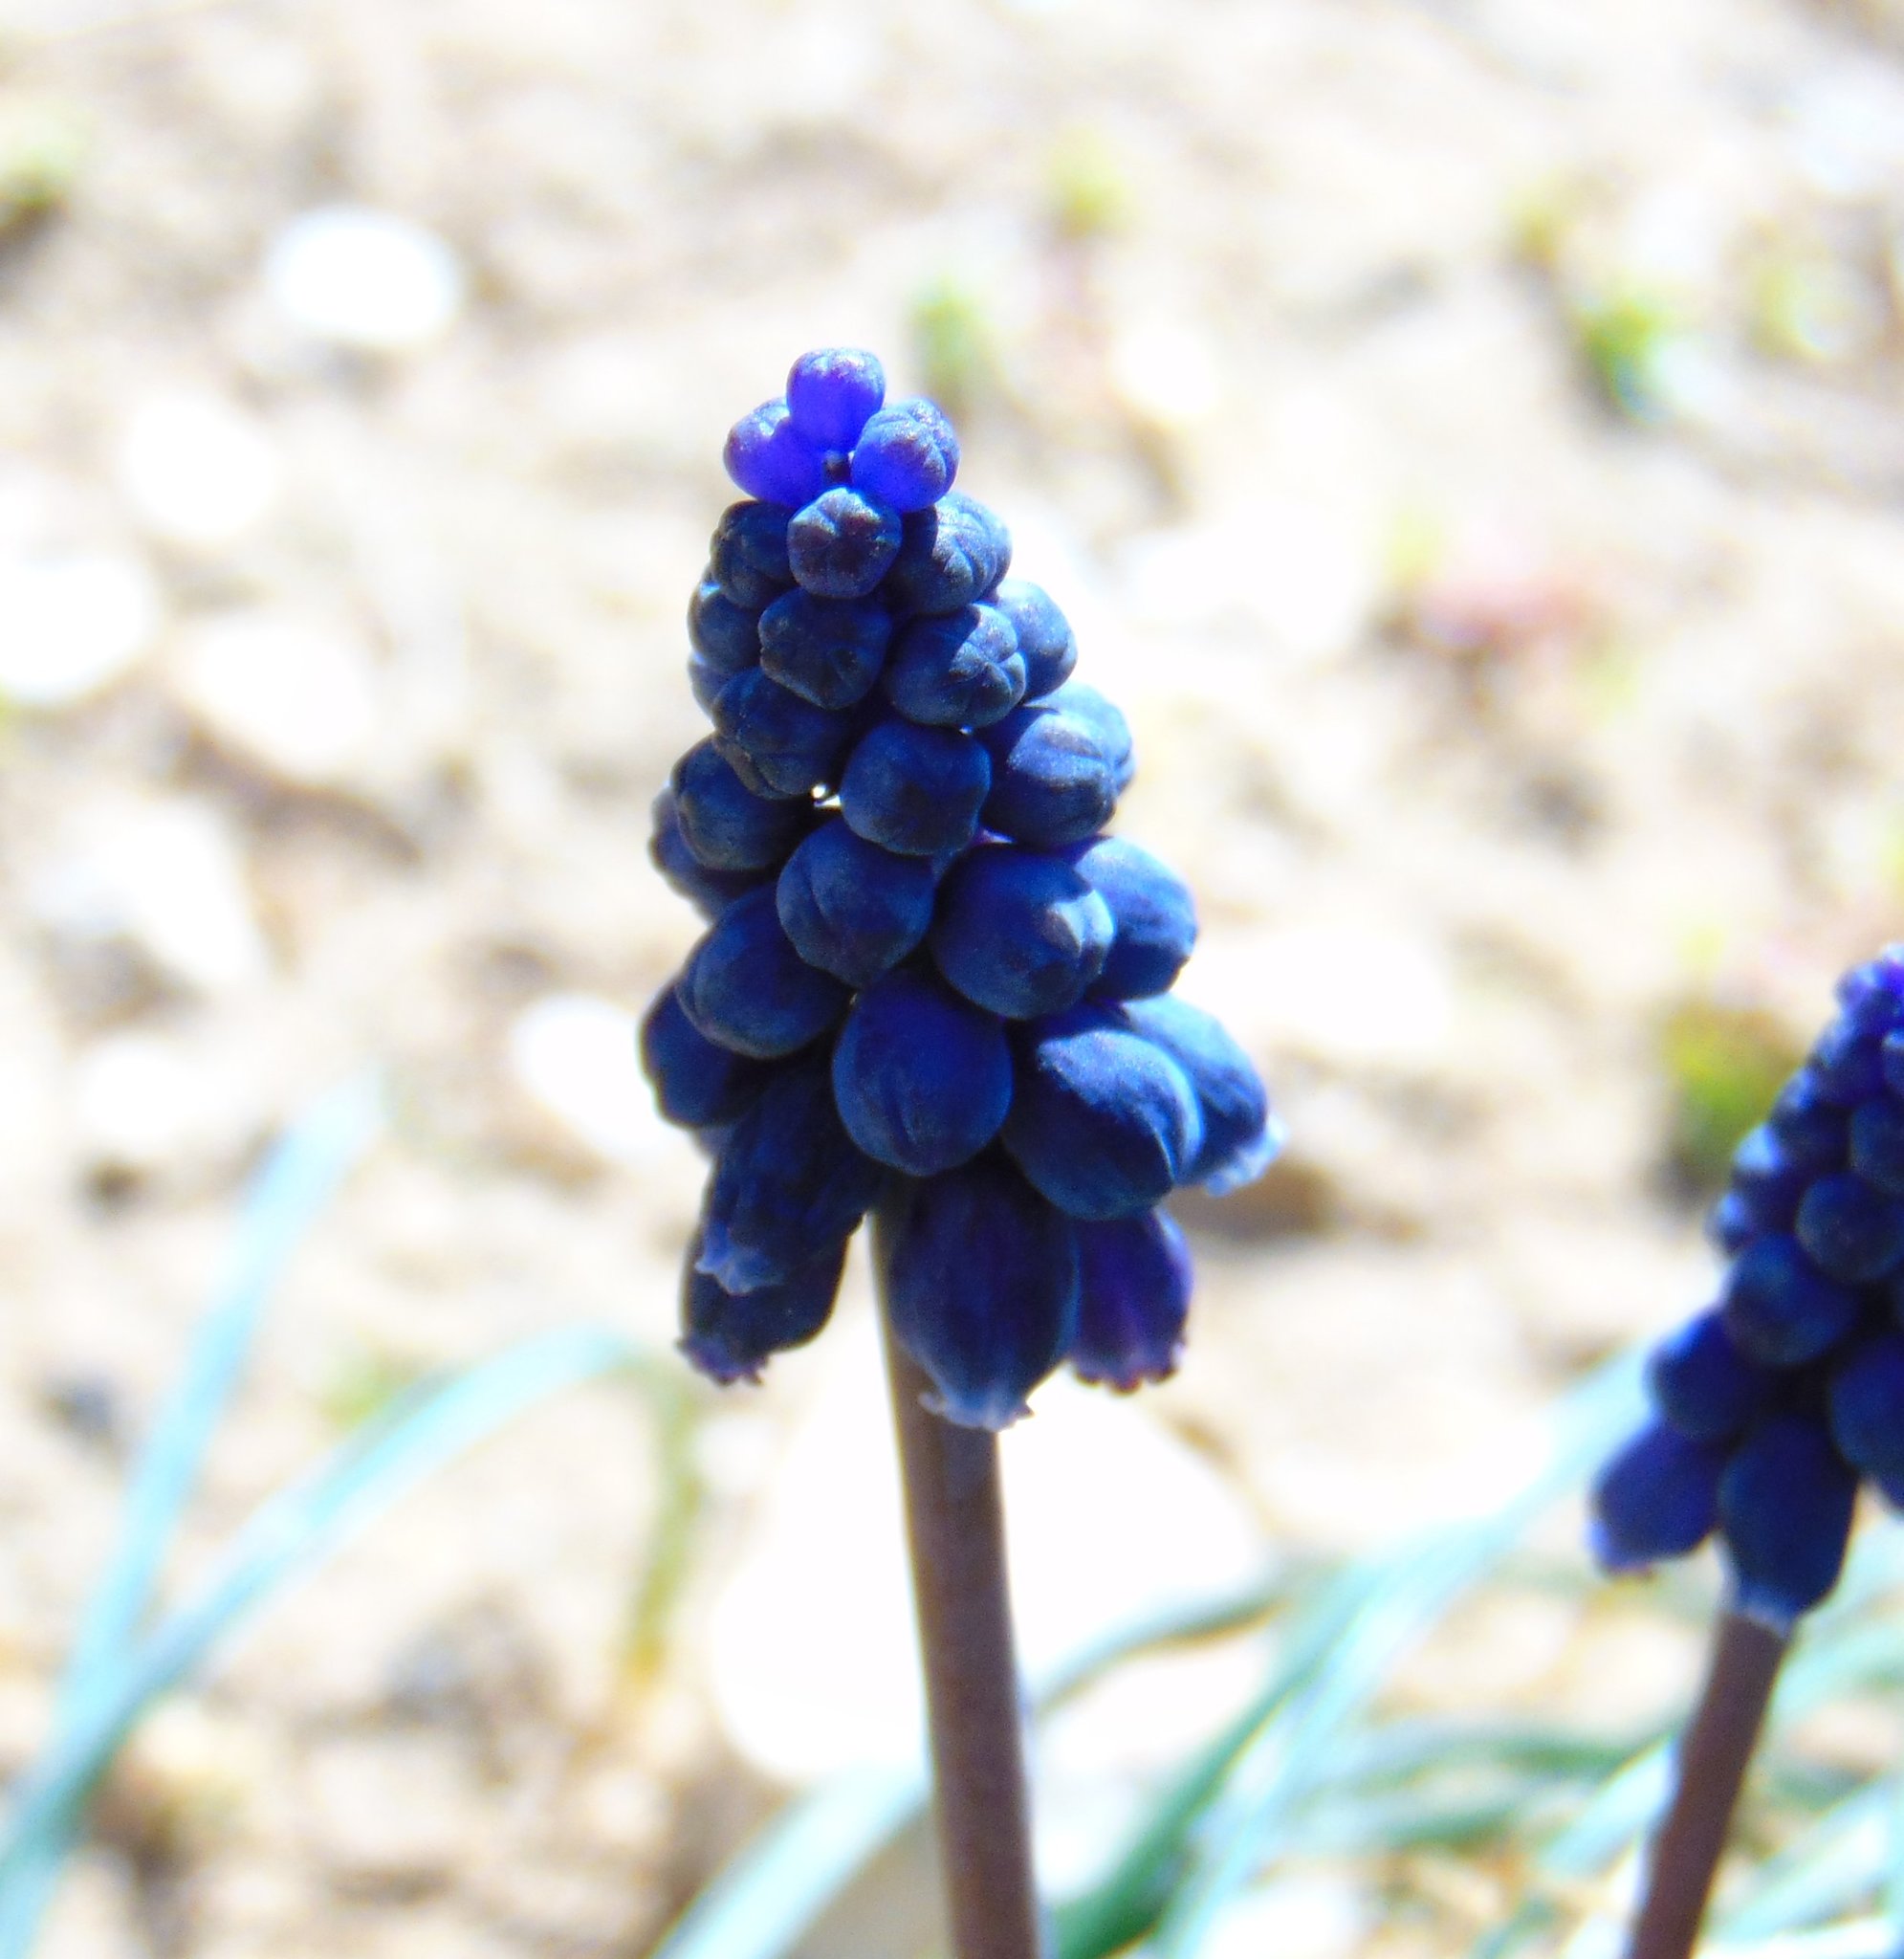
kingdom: Plantae
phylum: Tracheophyta
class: Liliopsida
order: Asparagales
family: Asparagaceae
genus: Muscari
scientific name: Muscari neglectum
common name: Grape-hyacinth
